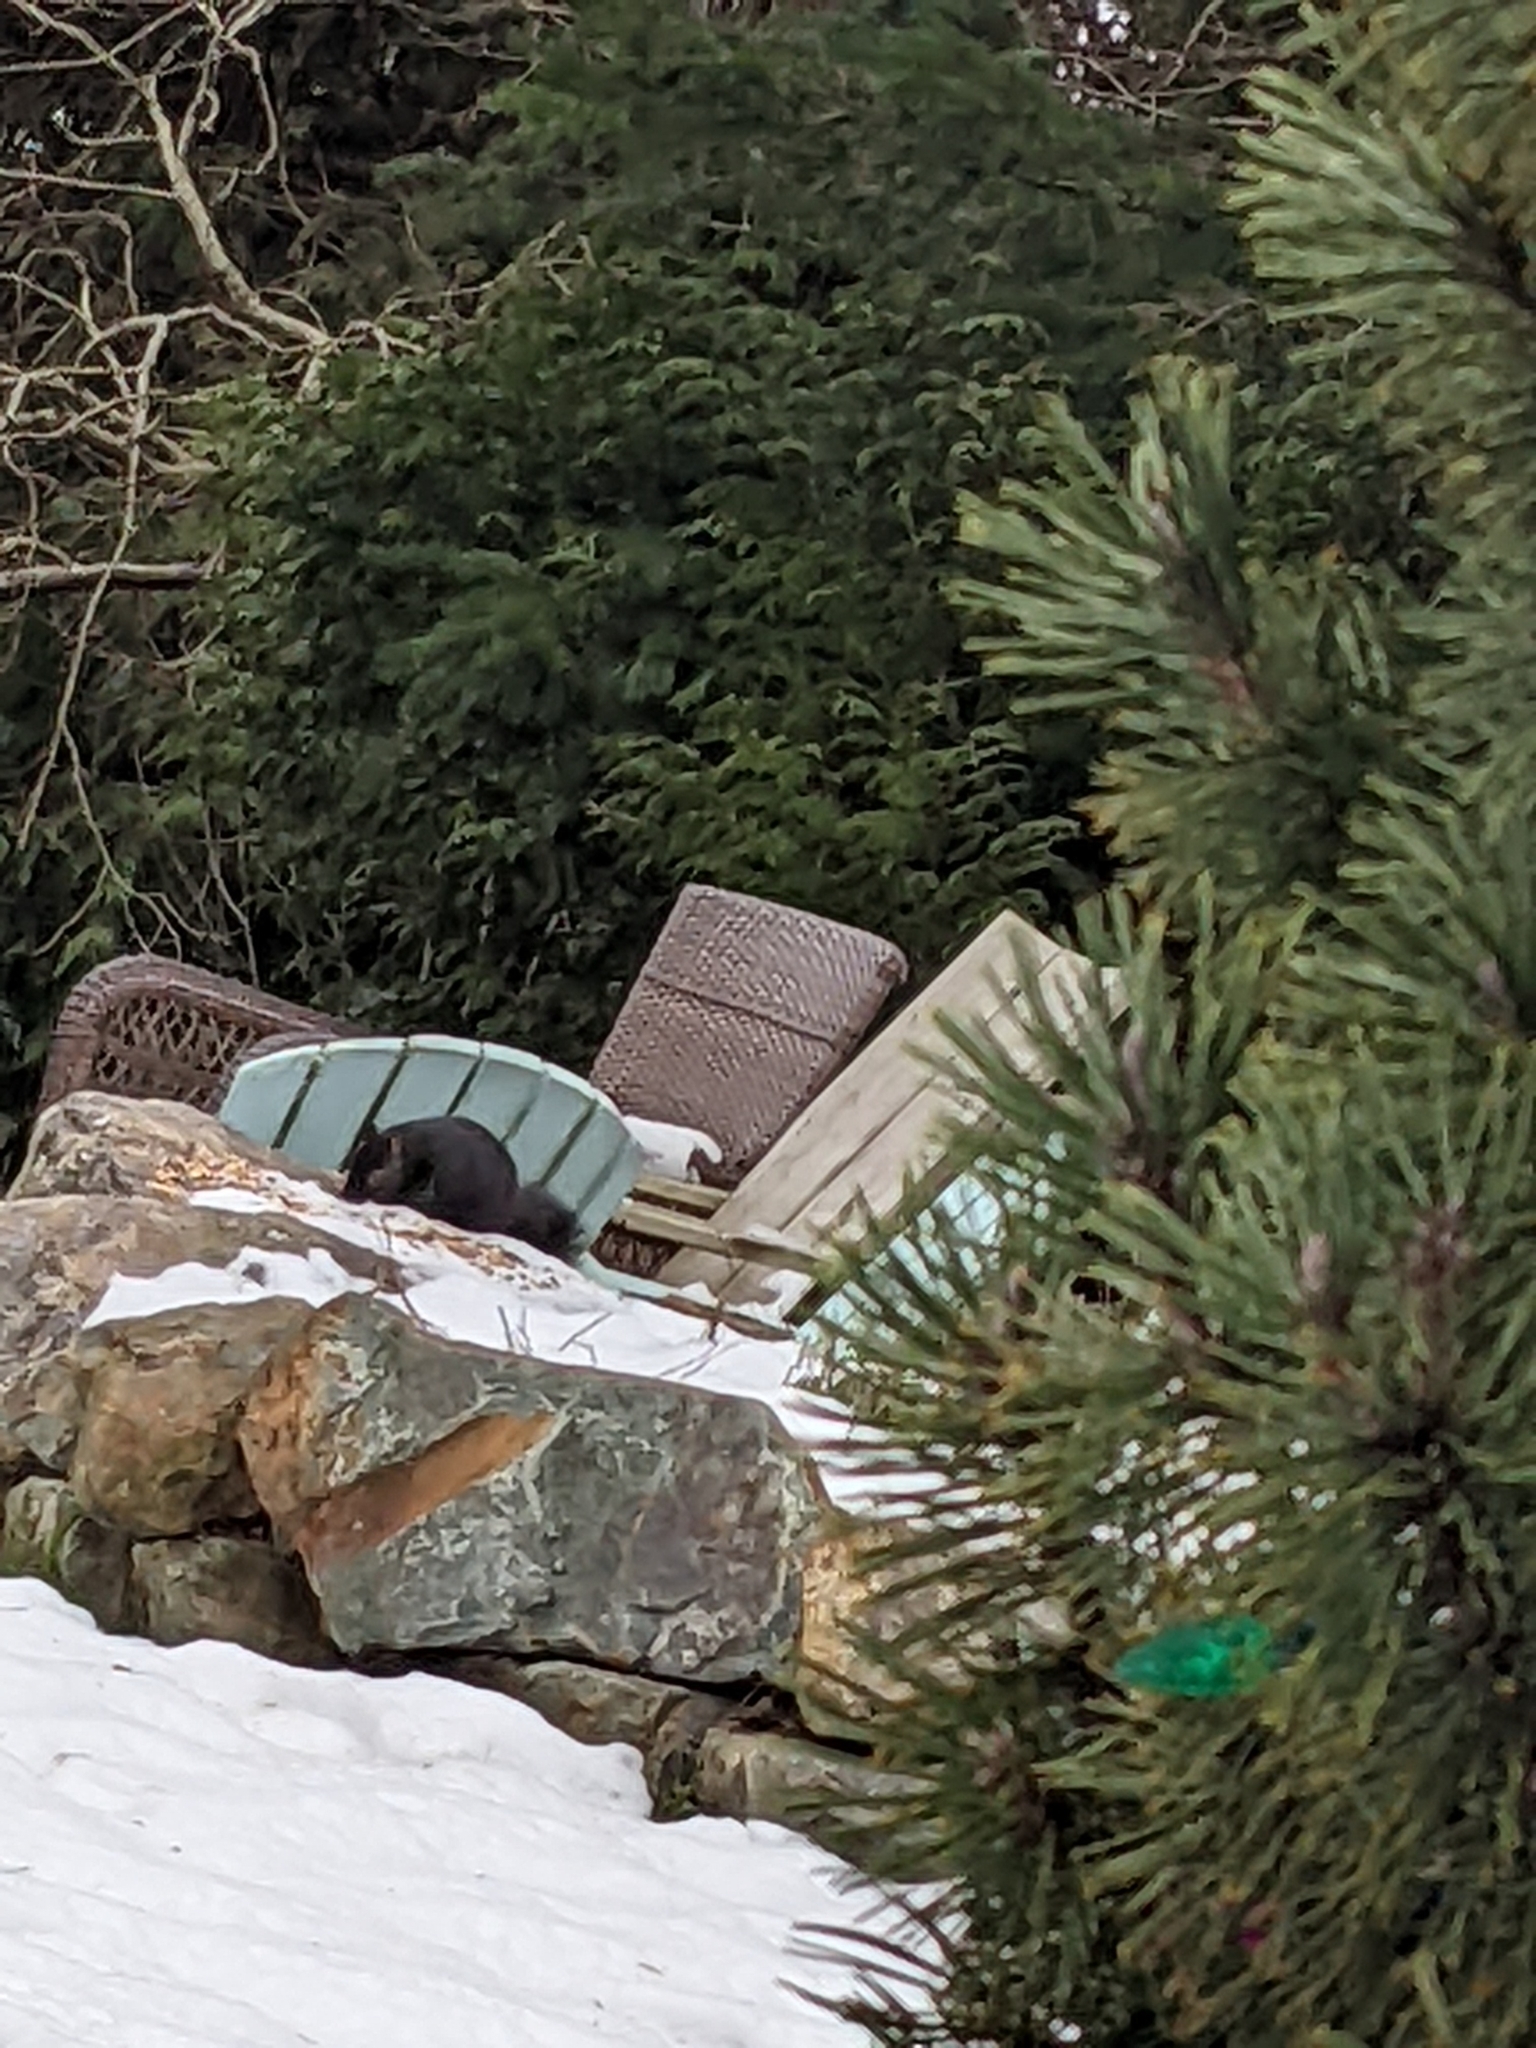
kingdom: Animalia
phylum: Chordata
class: Mammalia
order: Rodentia
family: Sciuridae
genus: Sciurus
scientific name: Sciurus carolinensis
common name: Eastern gray squirrel
